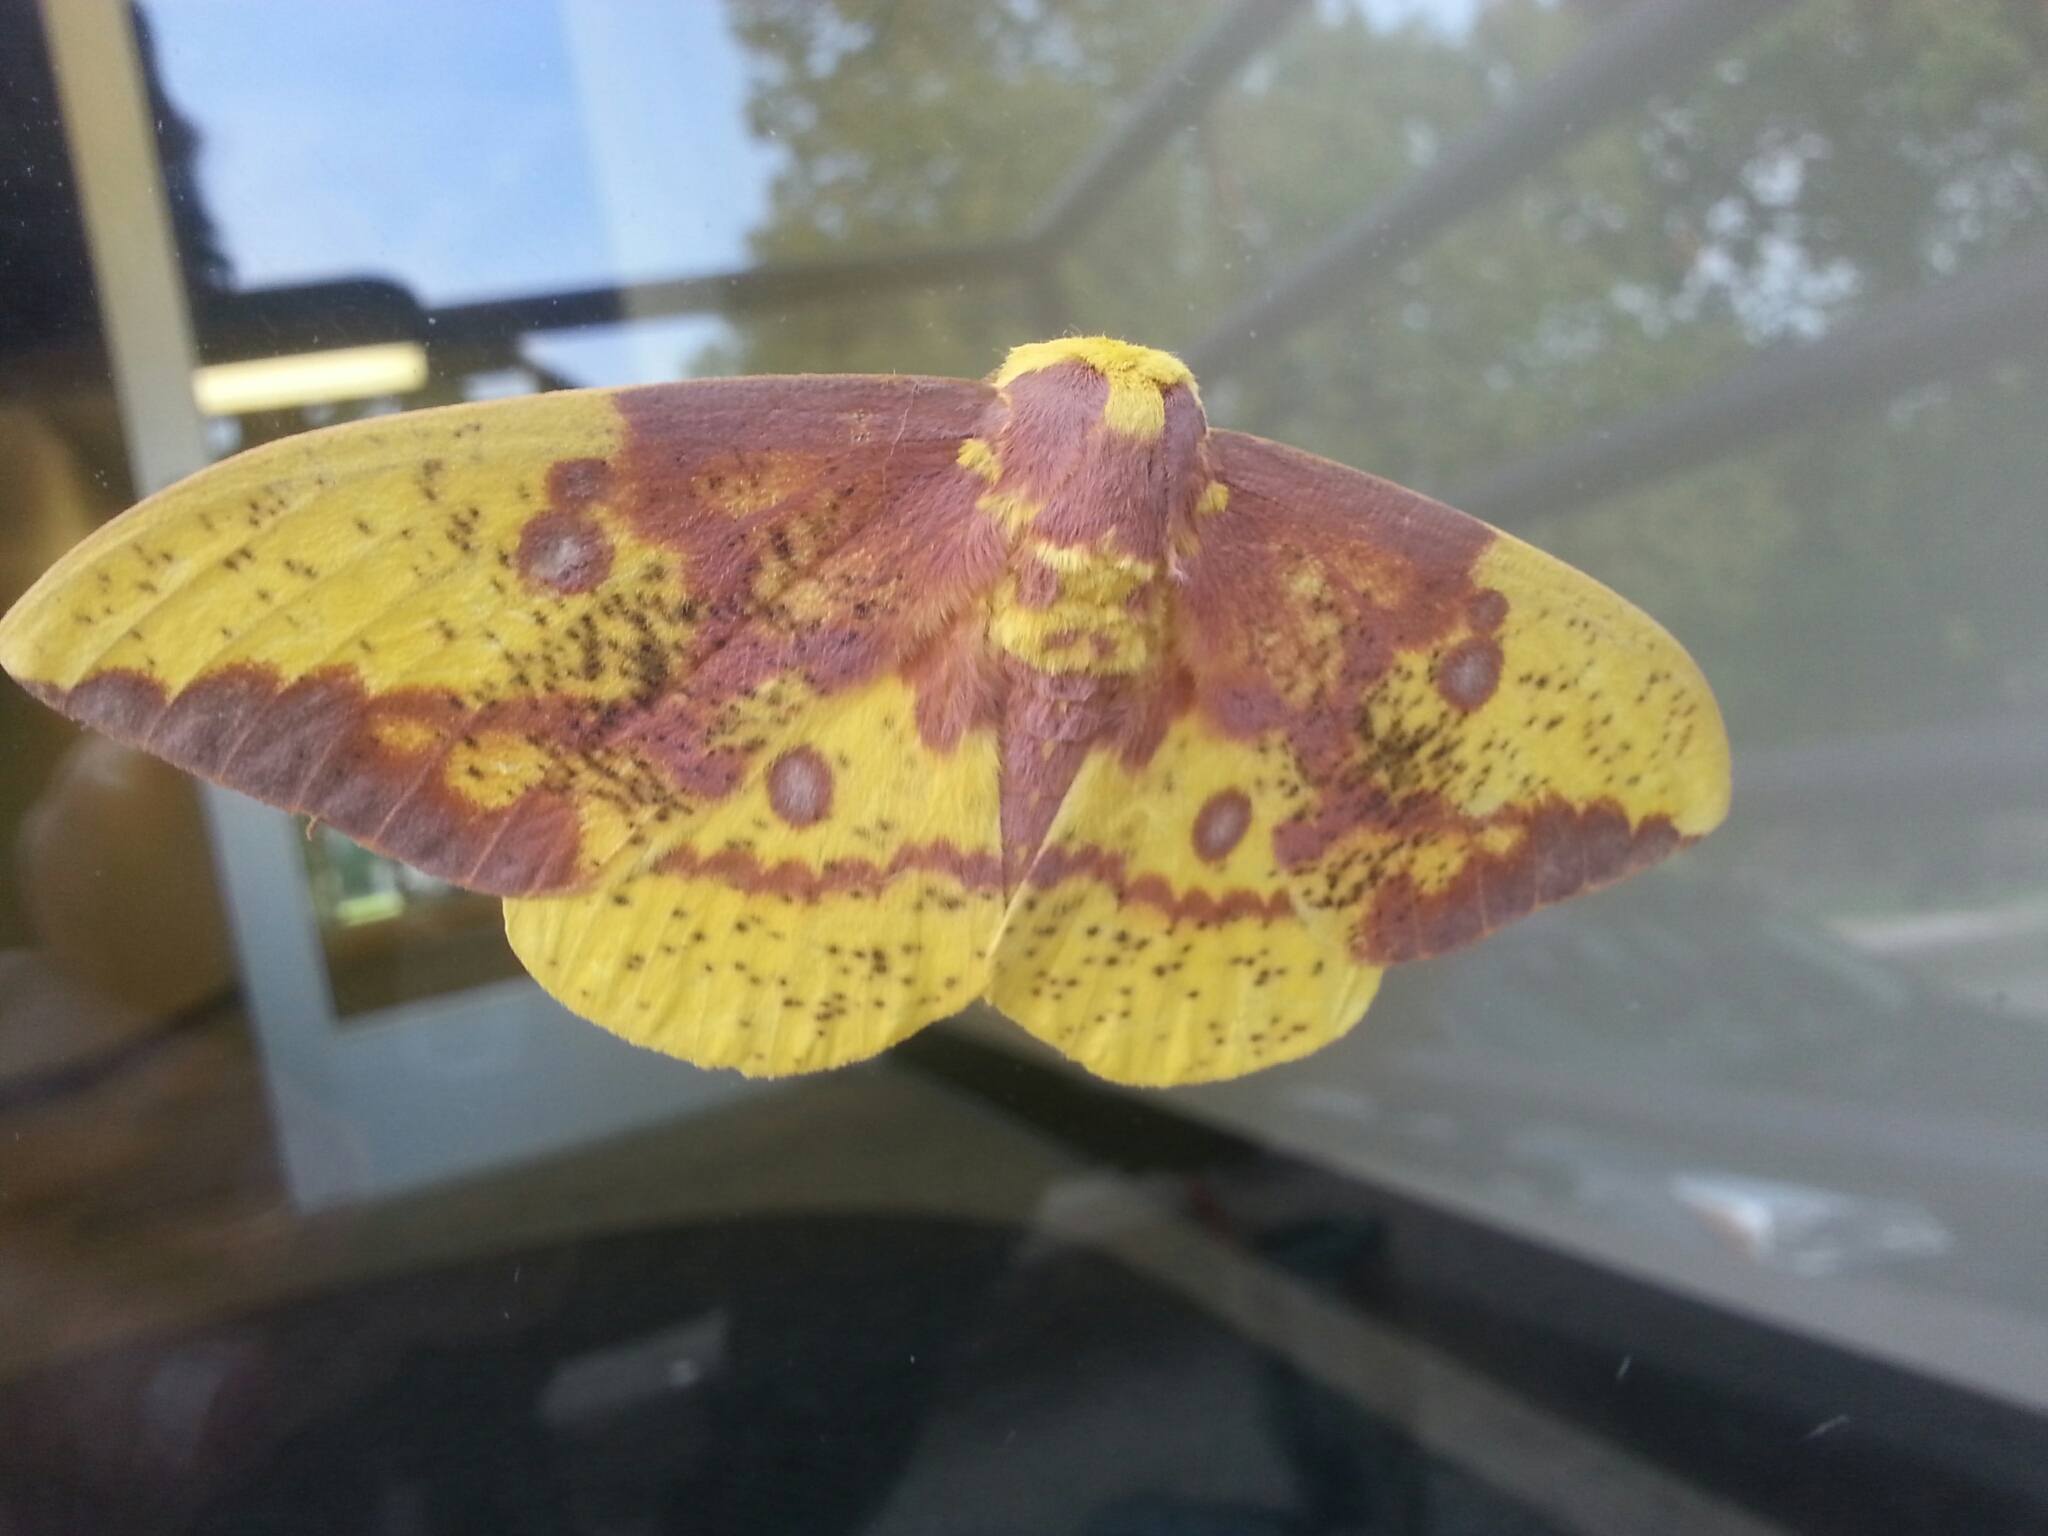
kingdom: Animalia
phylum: Arthropoda
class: Insecta
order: Lepidoptera
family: Saturniidae
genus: Eacles
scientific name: Eacles imperialis
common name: Imperial moth
